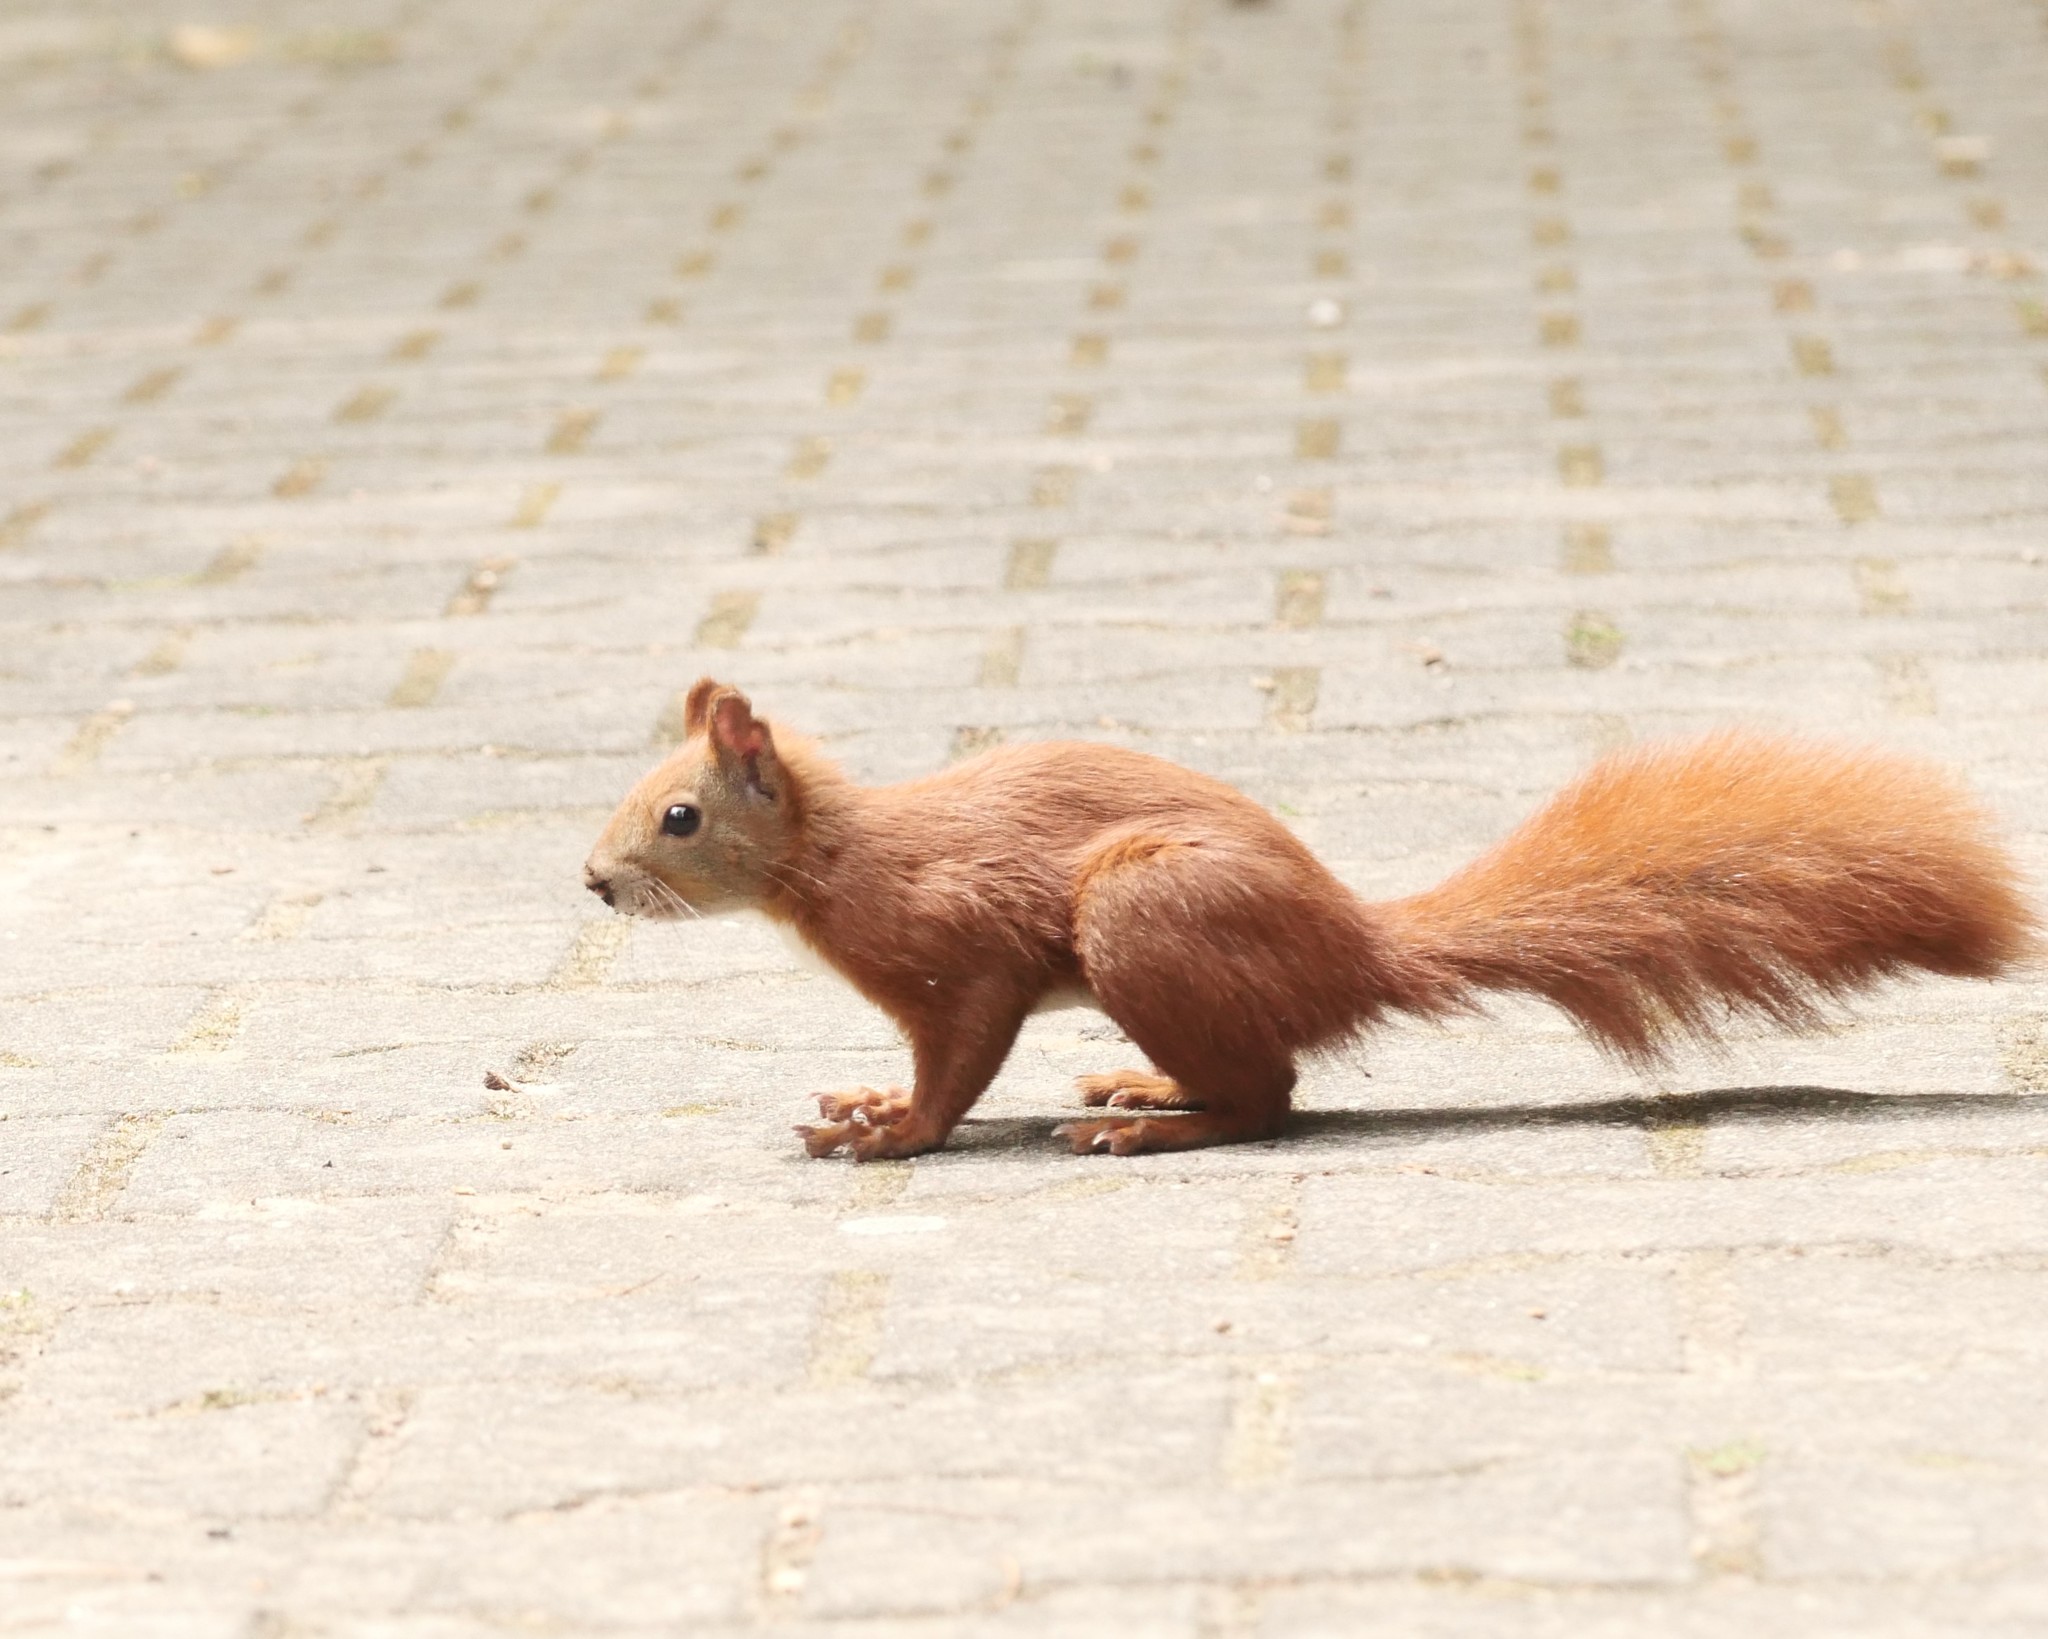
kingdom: Animalia
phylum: Chordata
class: Mammalia
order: Rodentia
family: Sciuridae
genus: Sciurus
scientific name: Sciurus vulgaris
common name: Eurasian red squirrel
